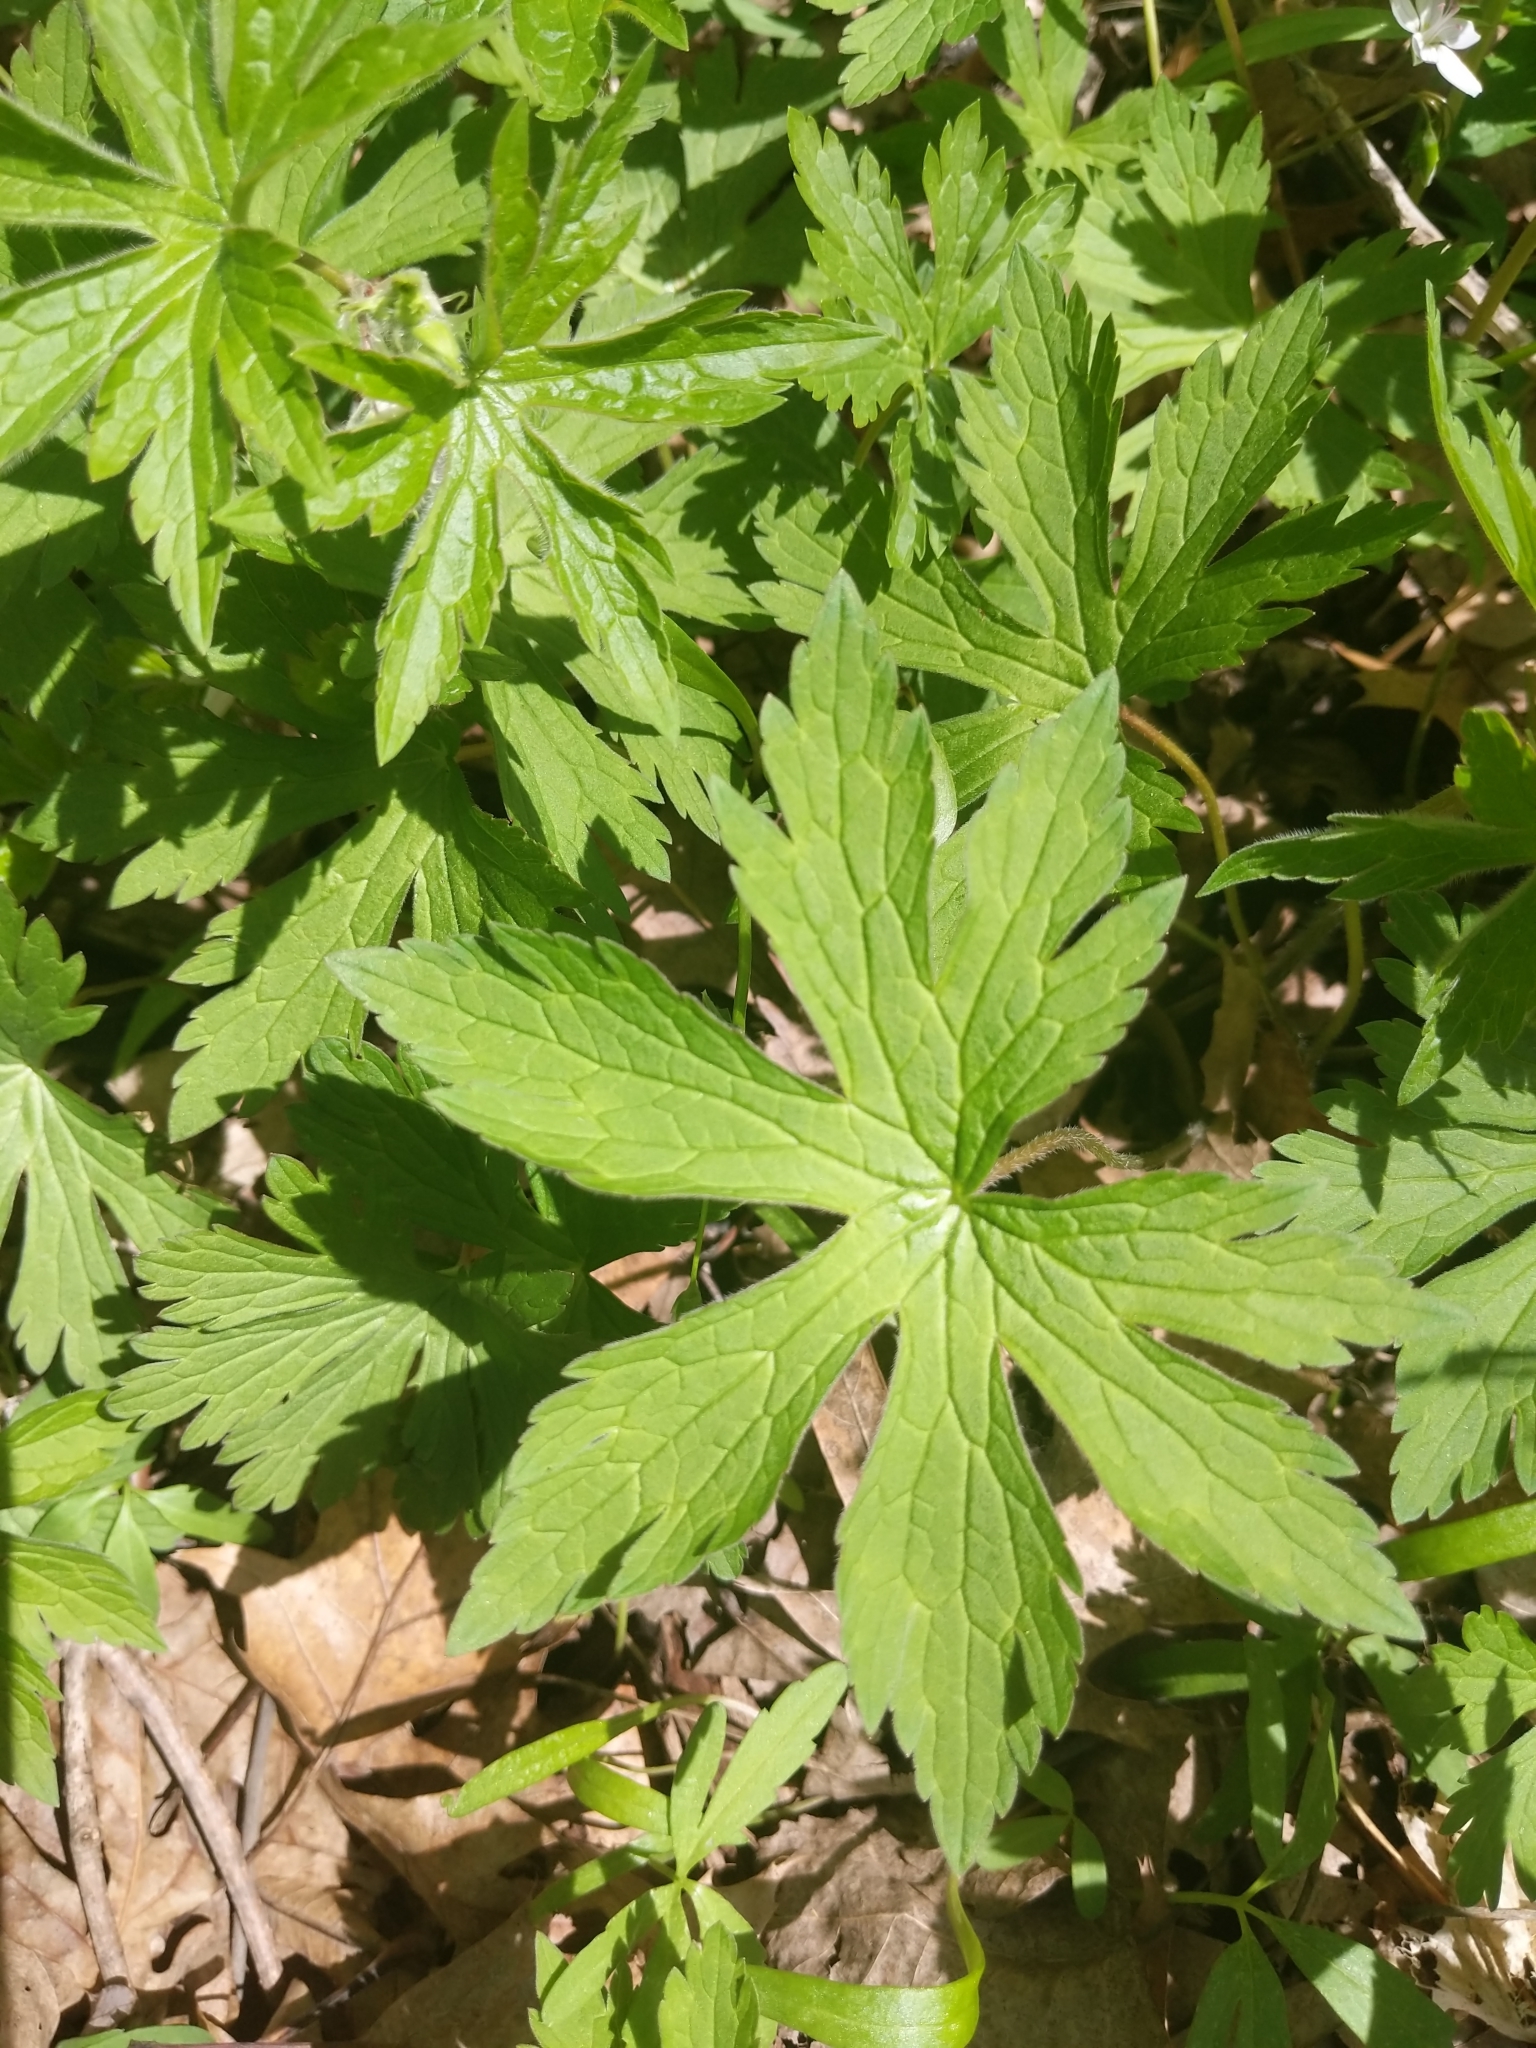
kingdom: Plantae
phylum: Tracheophyta
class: Magnoliopsida
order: Geraniales
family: Geraniaceae
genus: Geranium
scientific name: Geranium maculatum
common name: Spotted geranium
